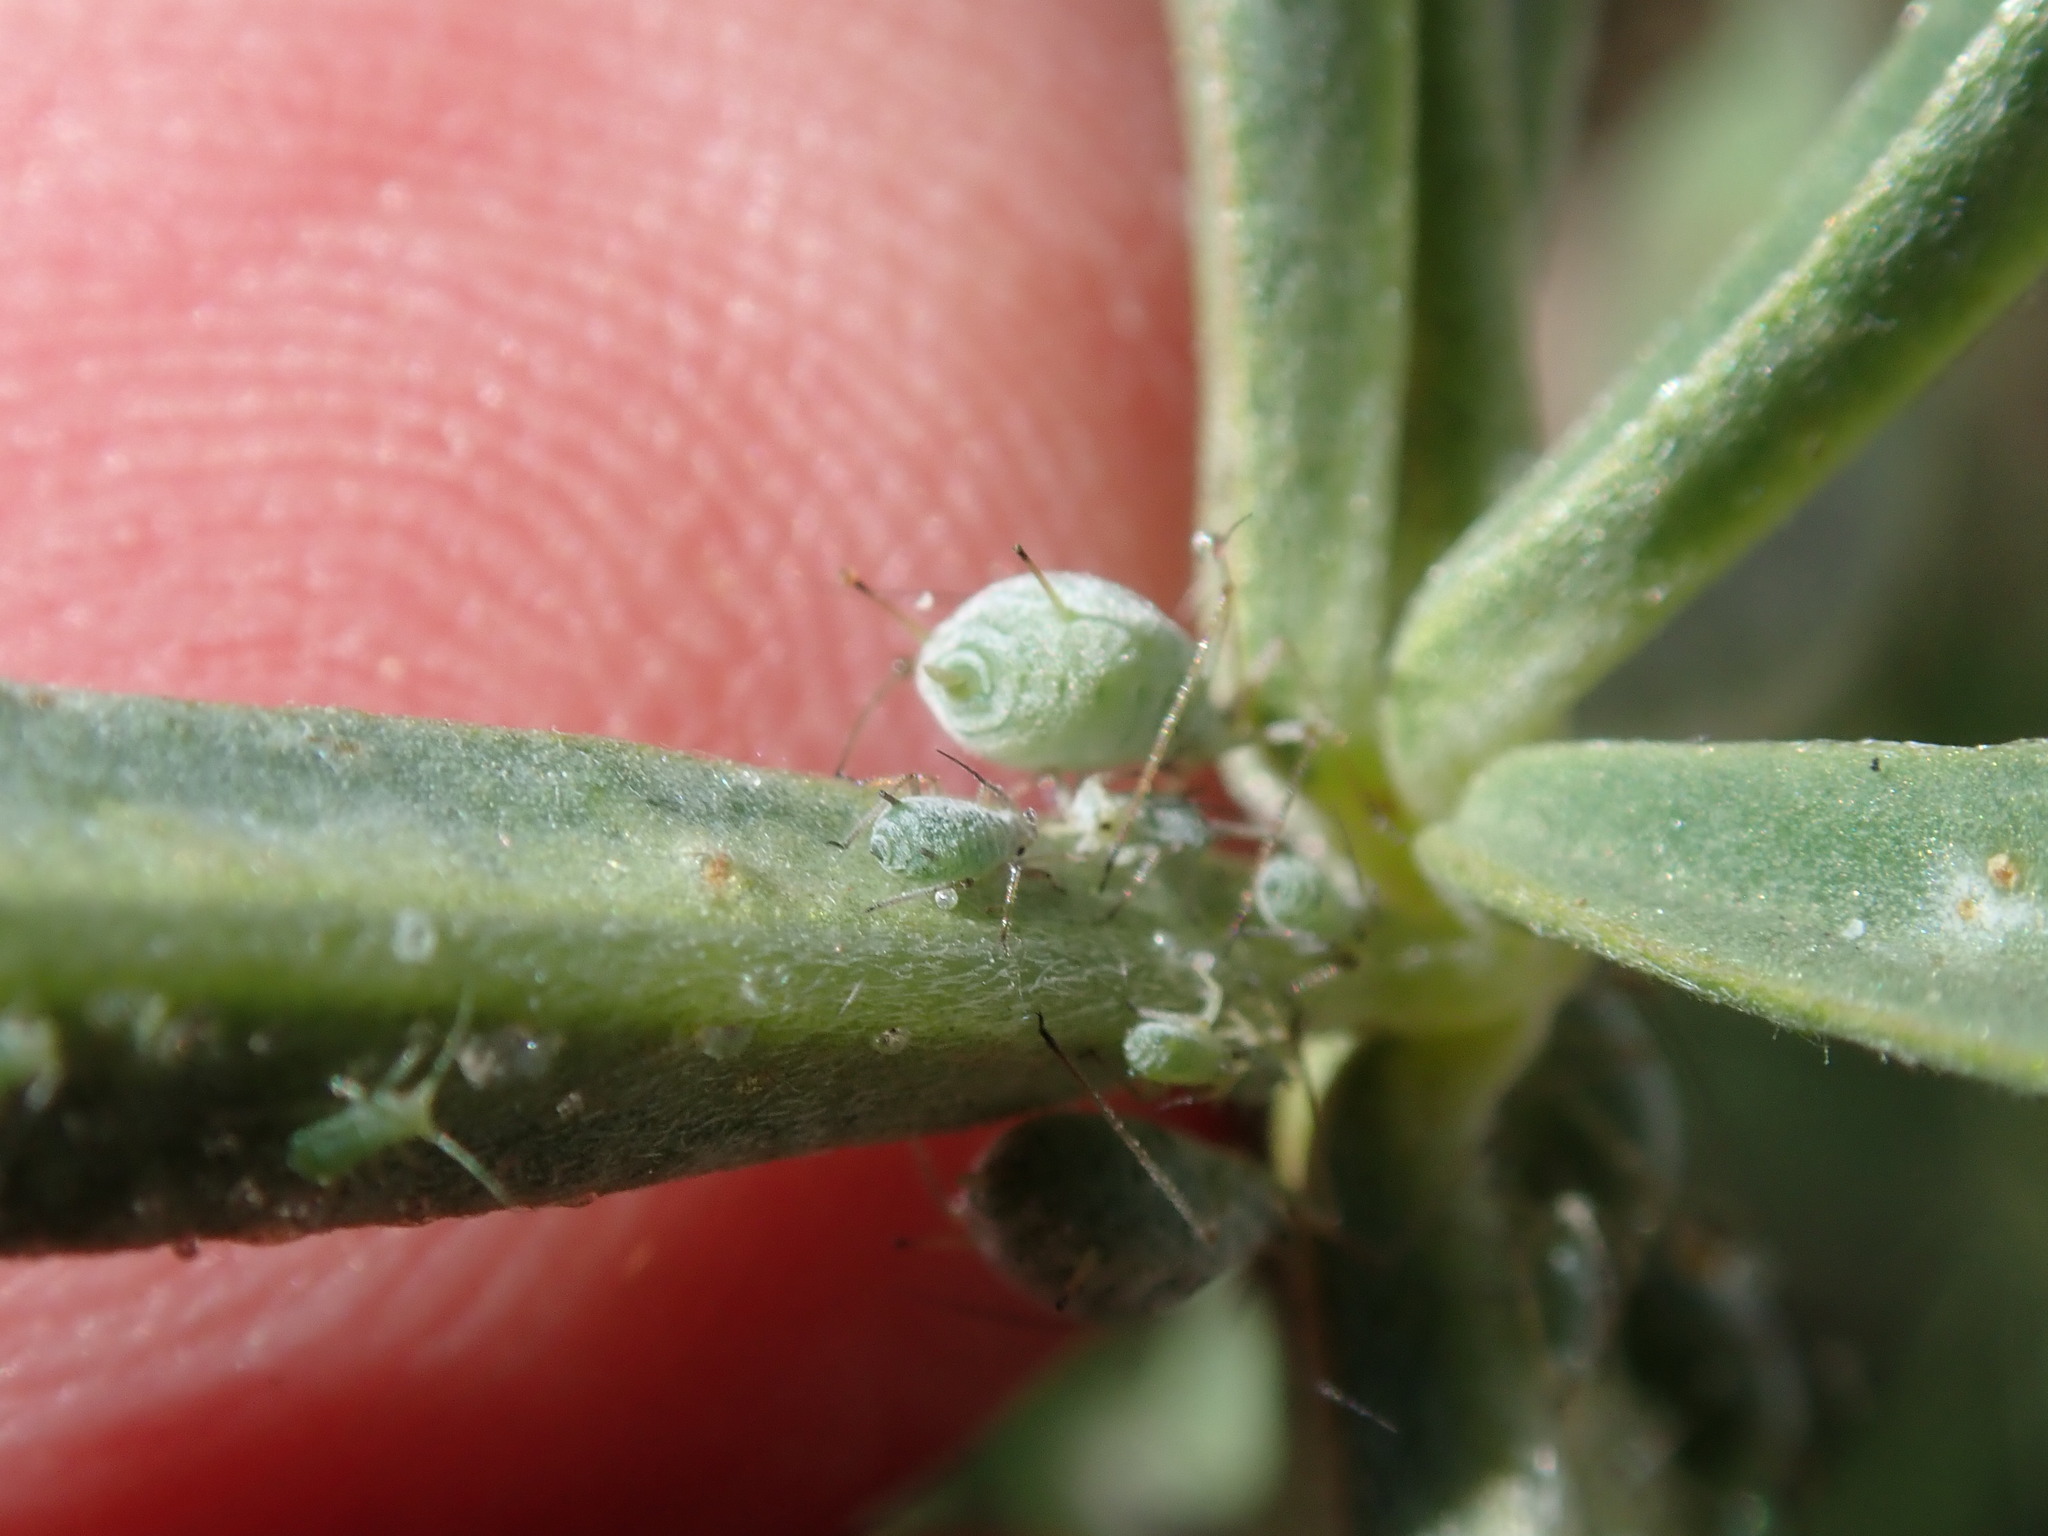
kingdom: Animalia
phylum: Arthropoda
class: Insecta
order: Hemiptera
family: Aphididae
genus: Macrosiphum
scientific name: Macrosiphum albifrons
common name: Lupine aphid
